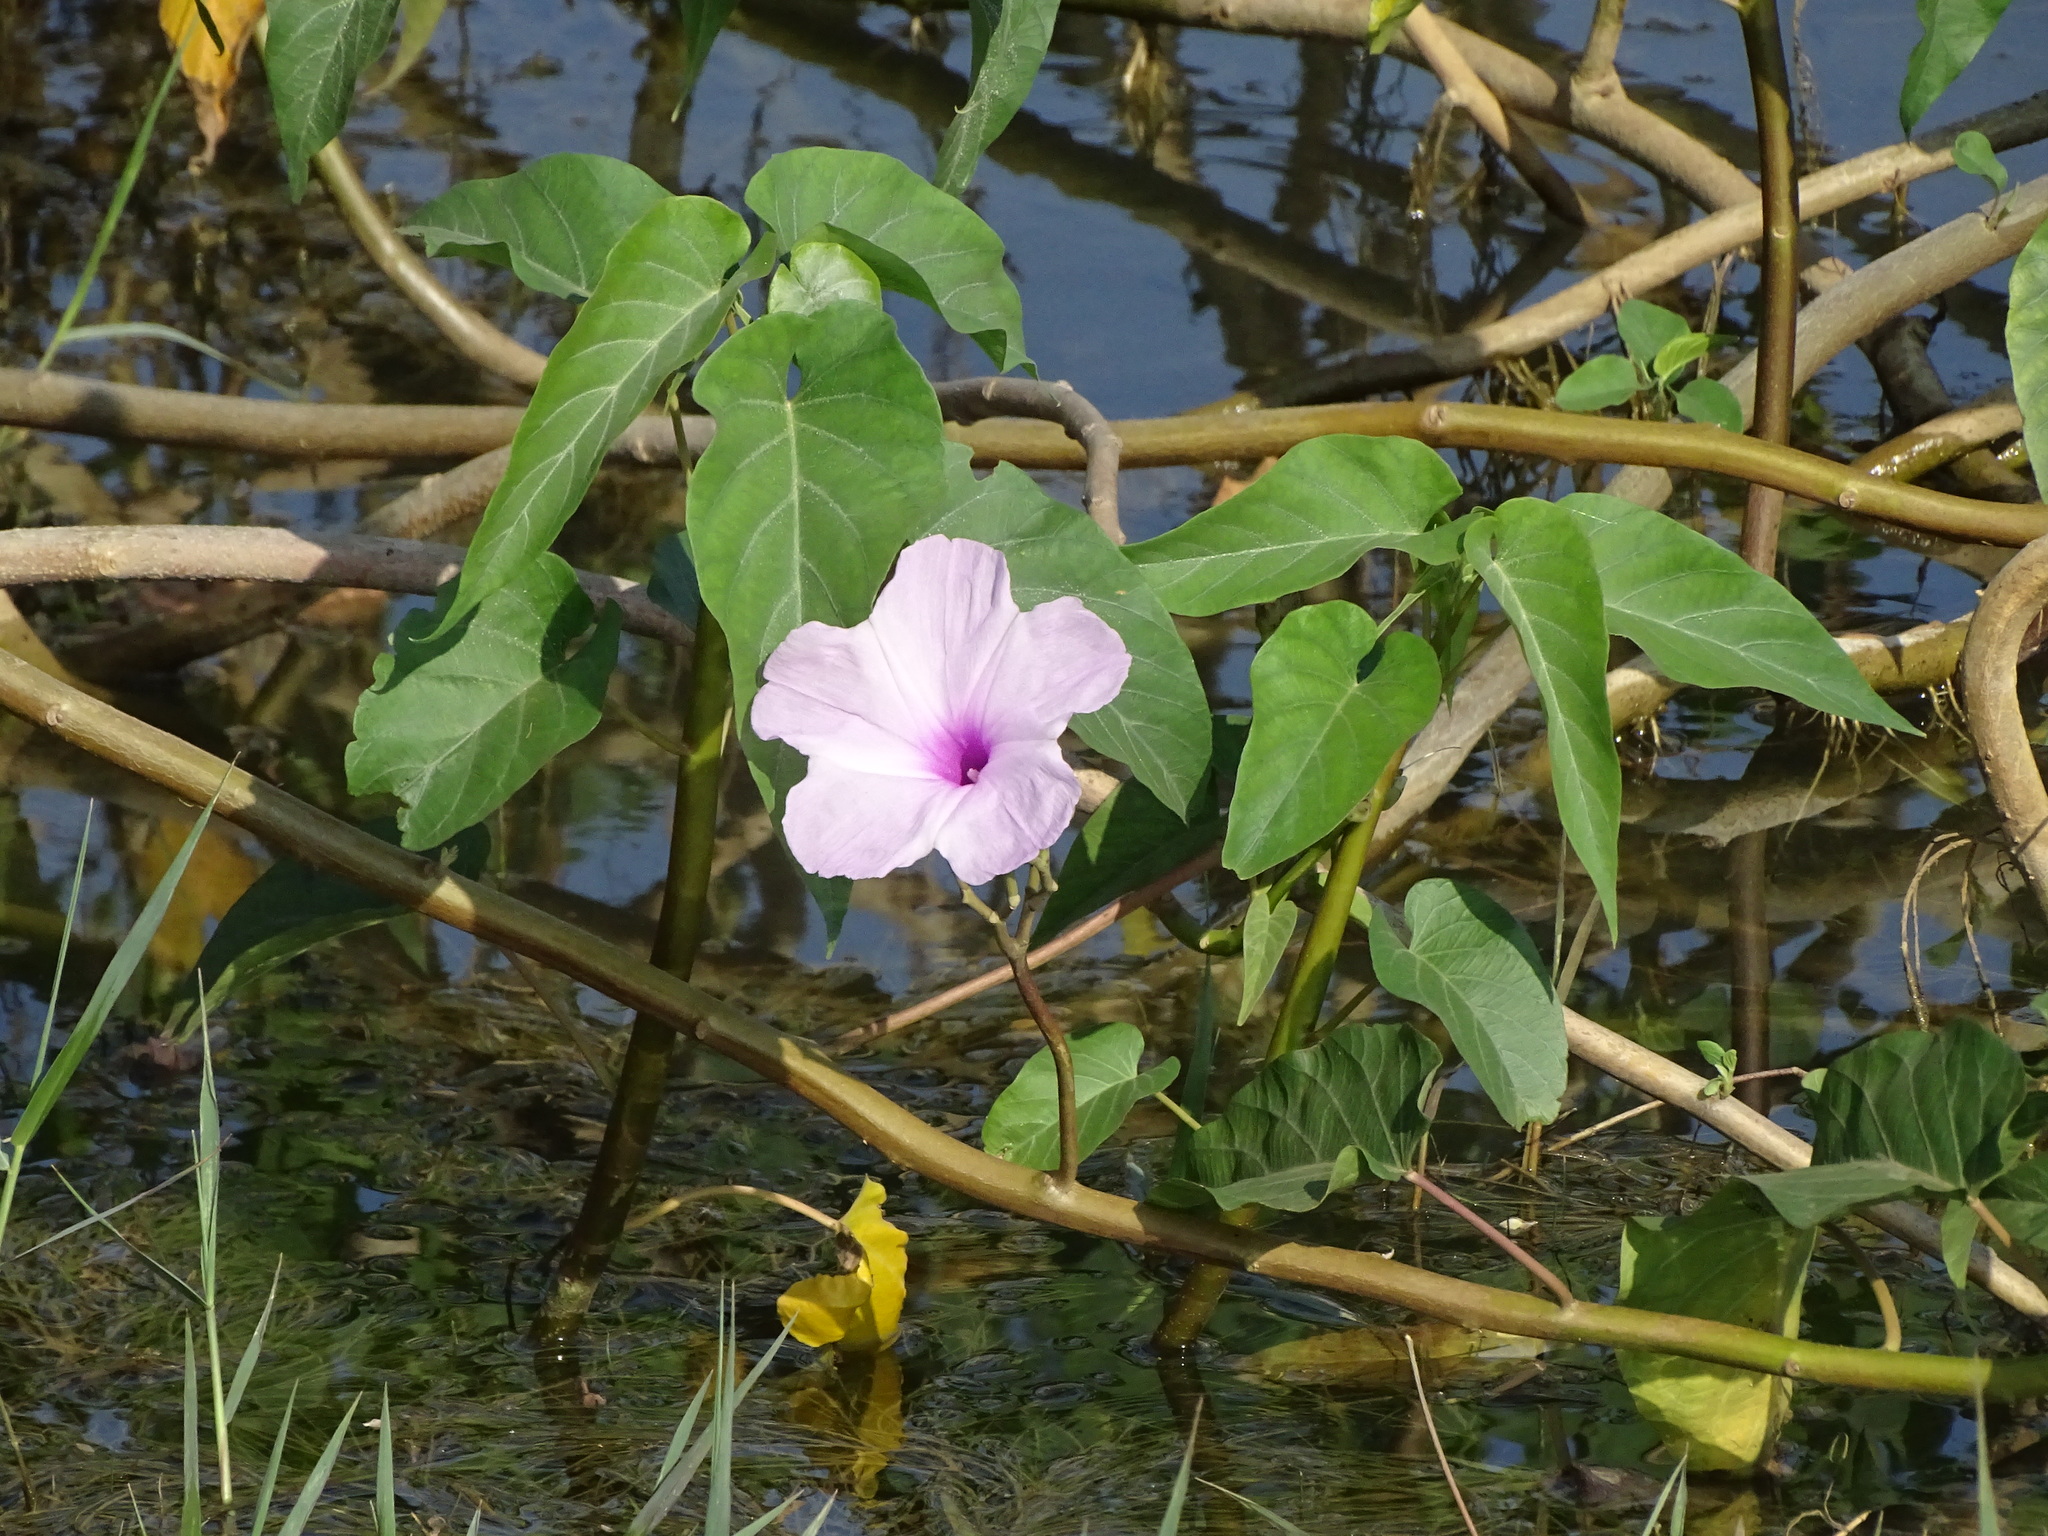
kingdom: Plantae
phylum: Tracheophyta
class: Magnoliopsida
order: Solanales
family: Convolvulaceae
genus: Ipomoea
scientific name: Ipomoea carnea
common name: Morning-glory
